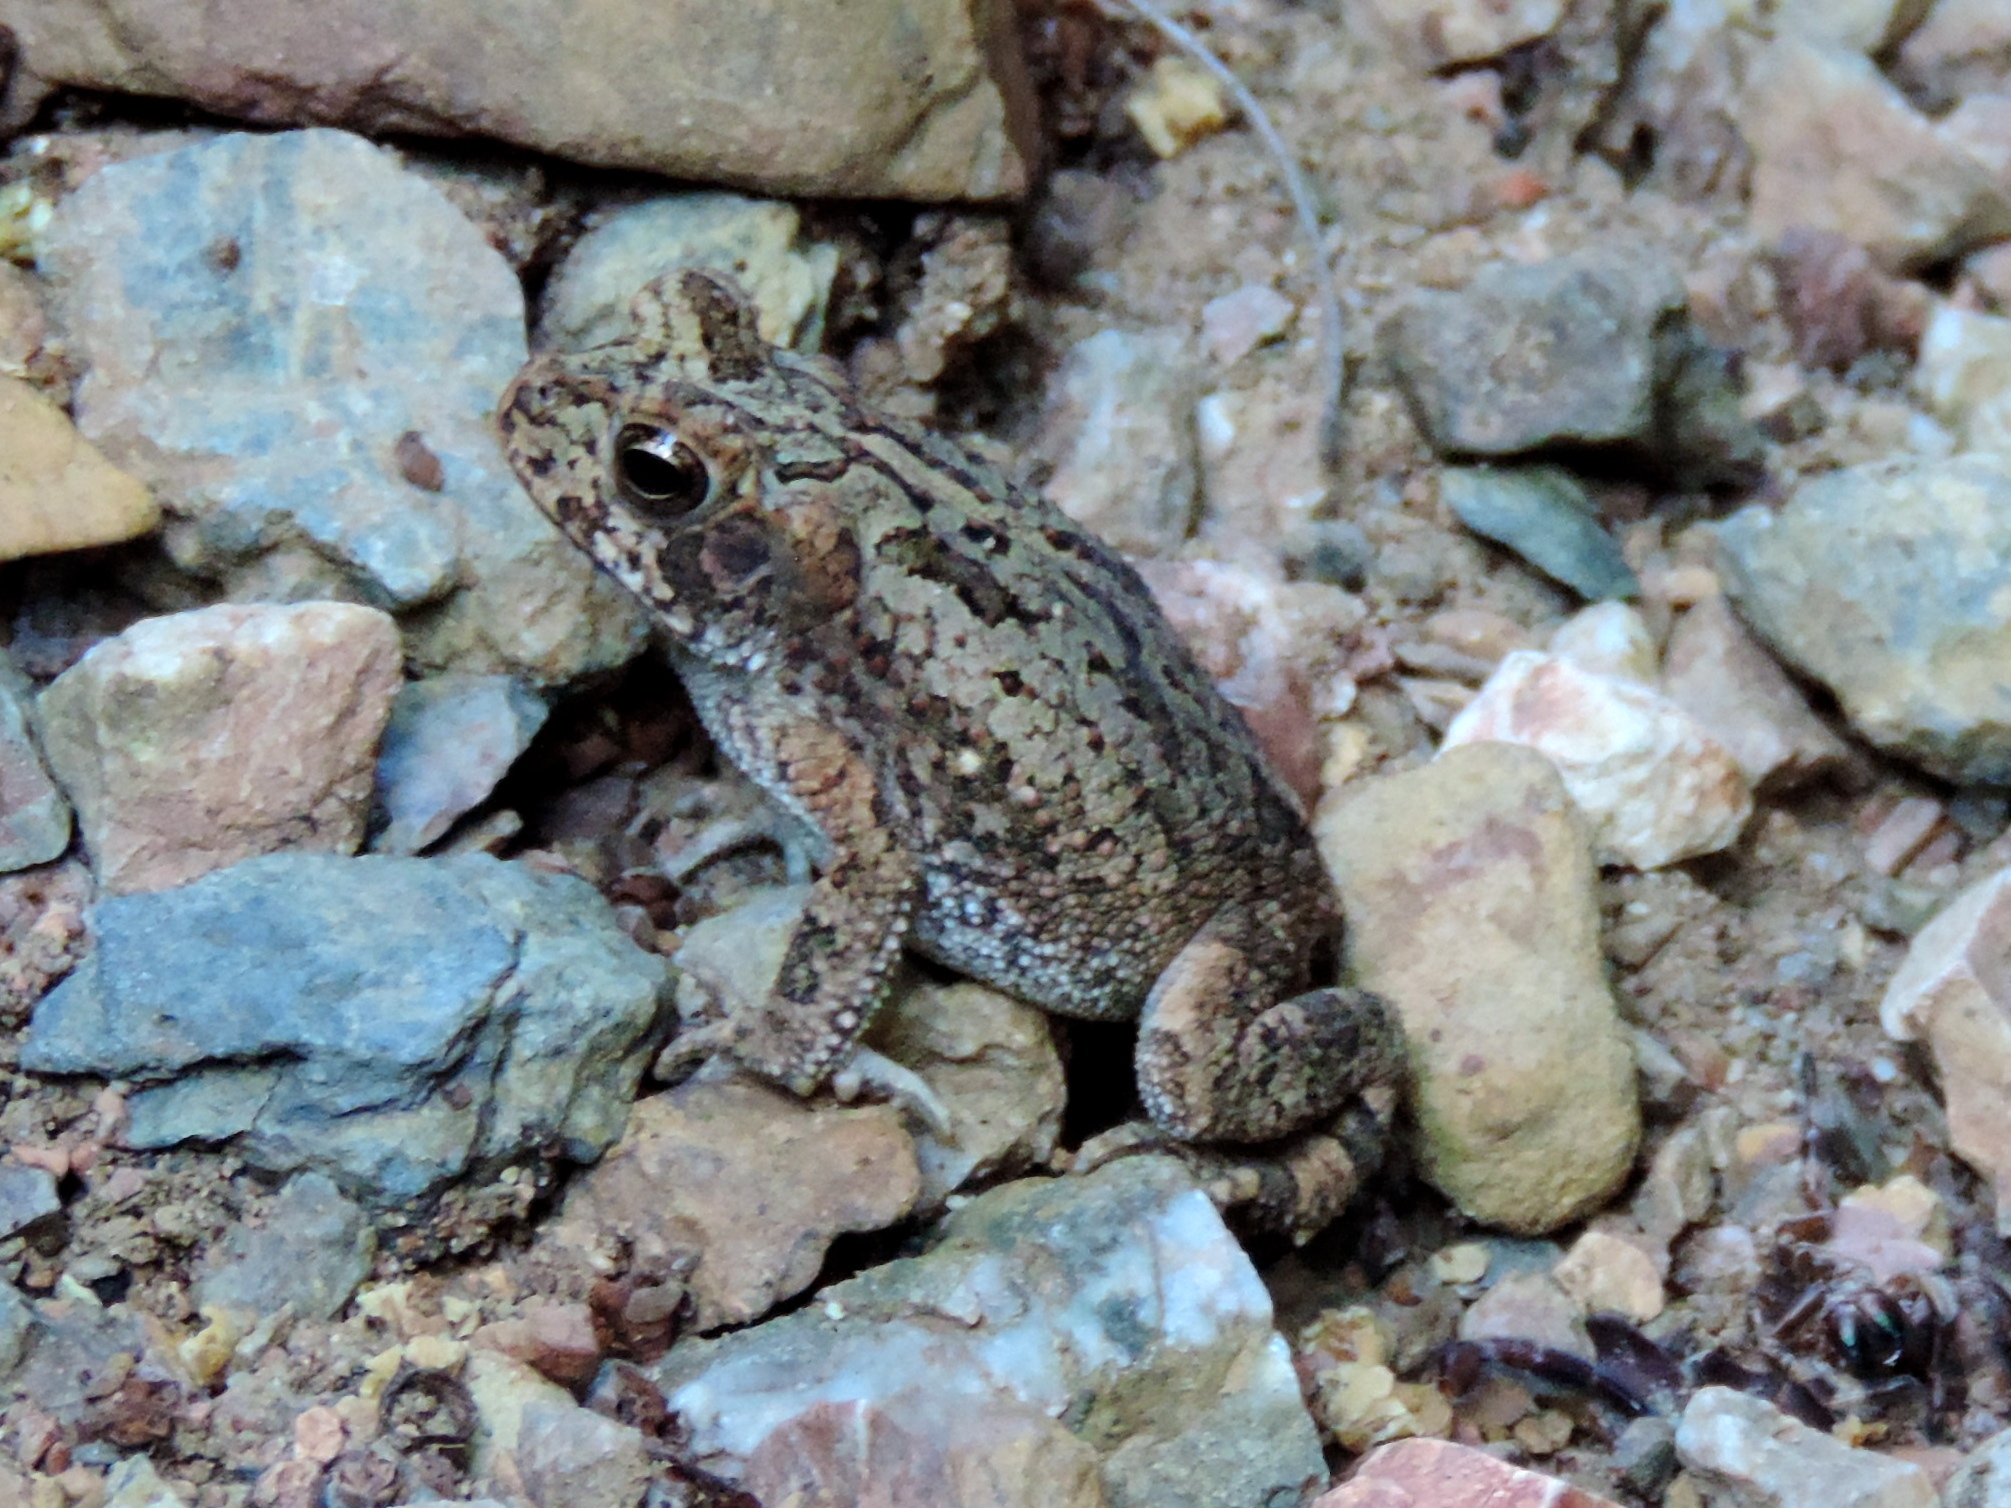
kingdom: Animalia
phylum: Chordata
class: Amphibia
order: Anura
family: Bufonidae
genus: Incilius
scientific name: Incilius mazatlanensis
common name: Sinaloa toad
